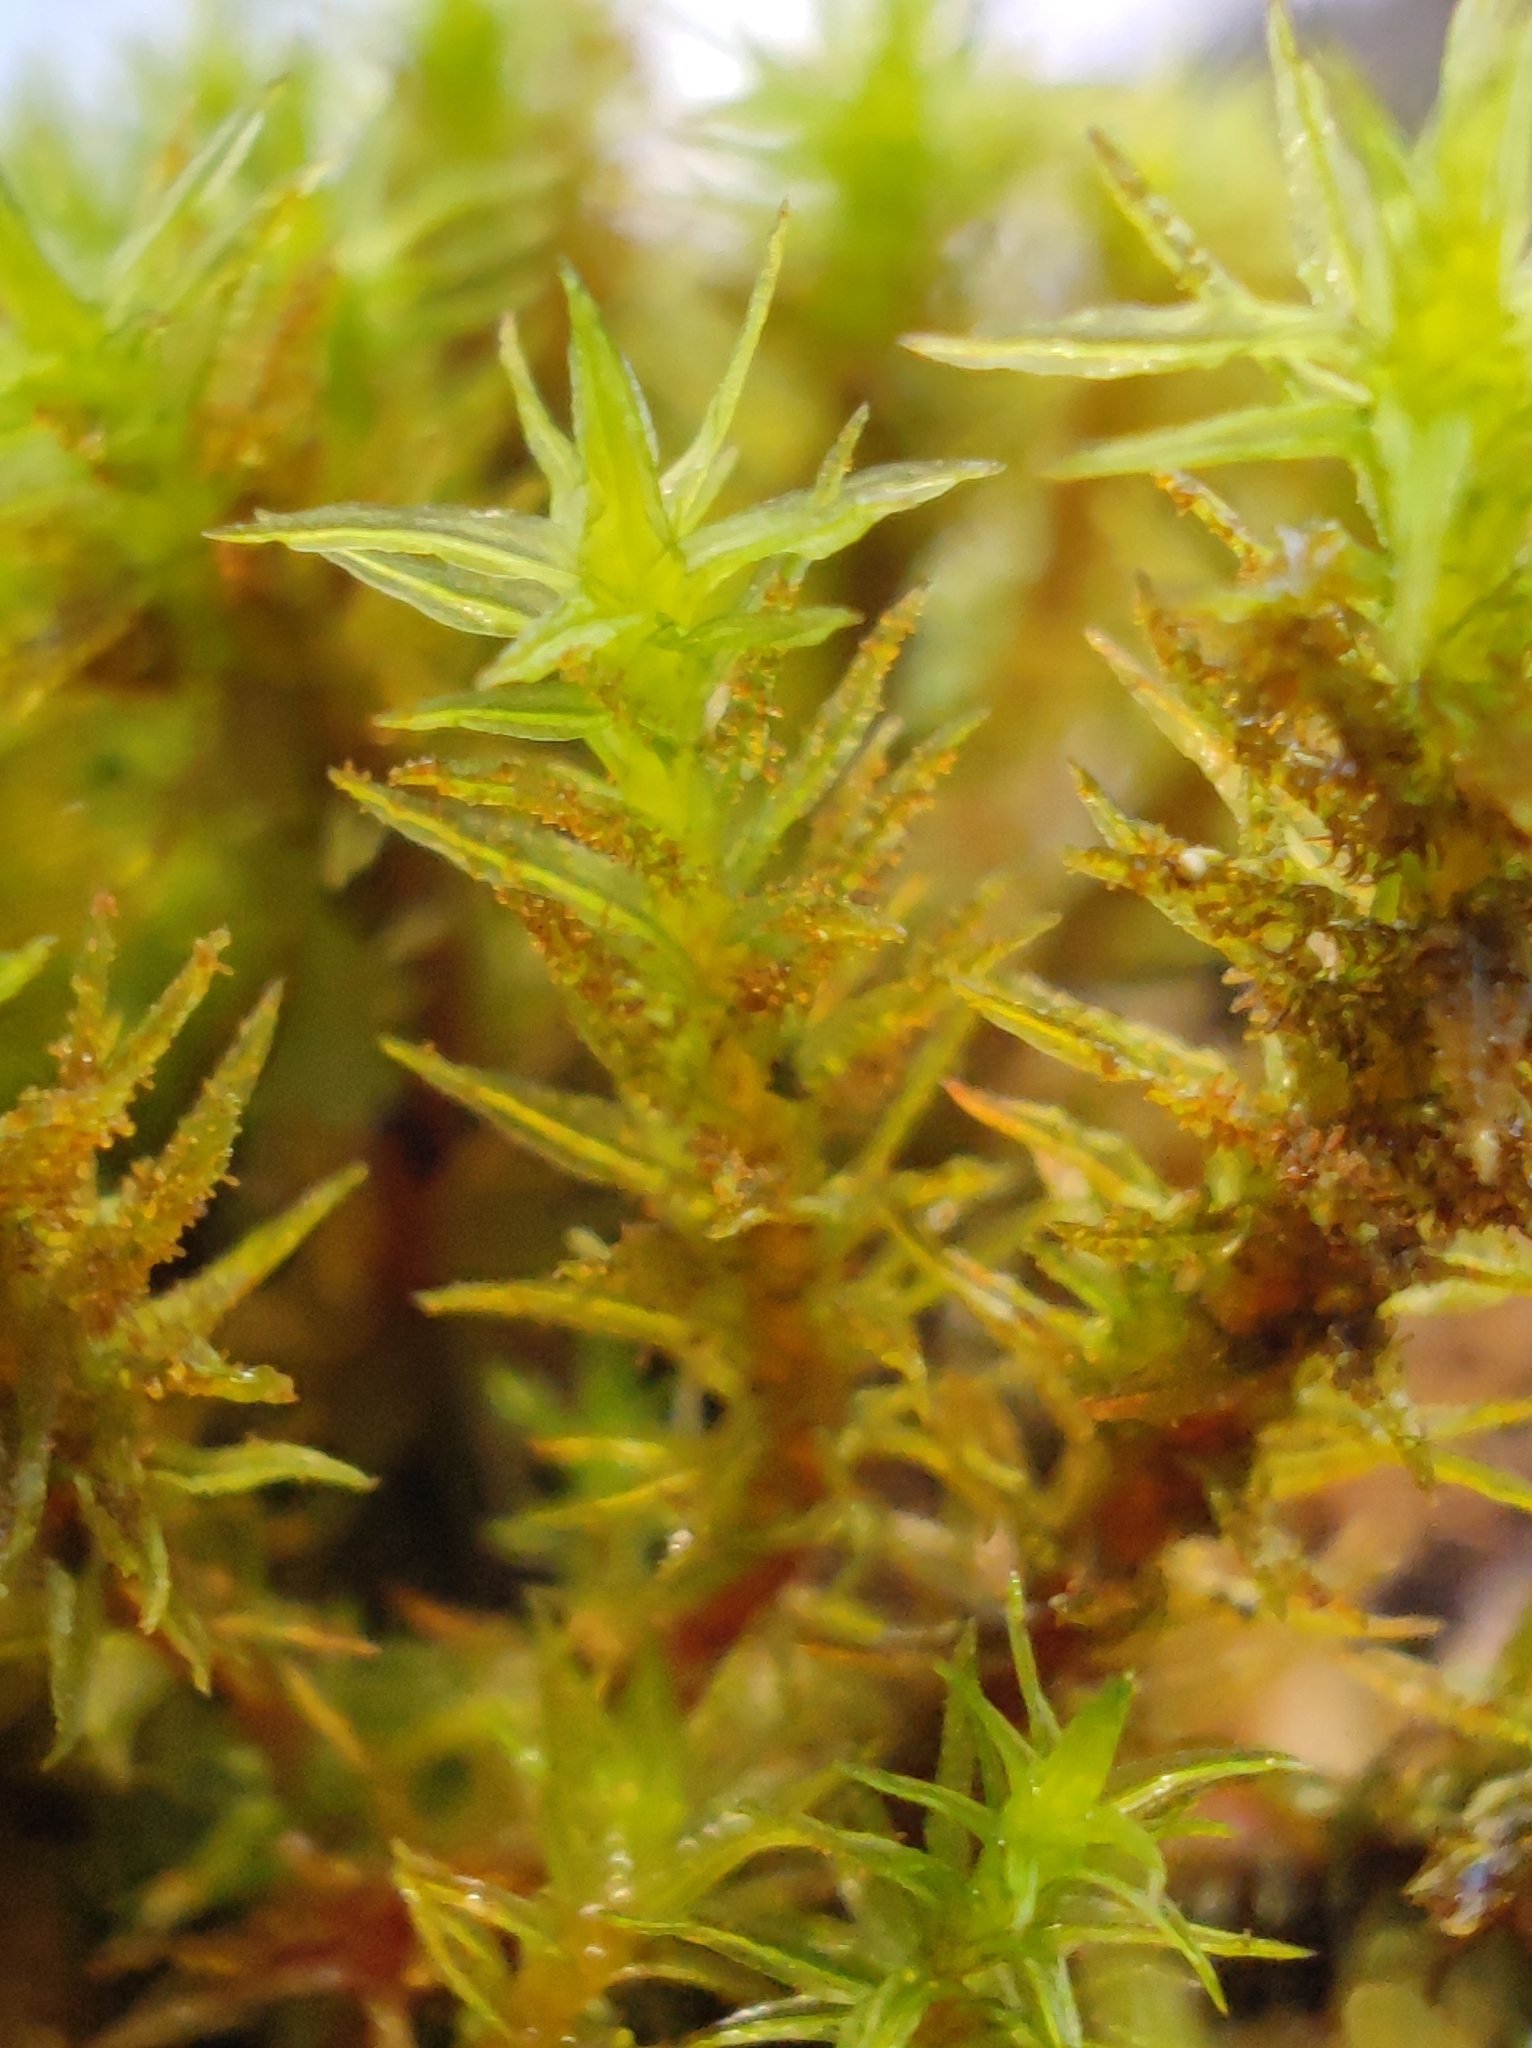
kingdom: Plantae
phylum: Bryophyta
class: Bryopsida
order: Orthotrichales
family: Orthotrichaceae
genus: Pulvigera
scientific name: Pulvigera lyellii
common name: Lyell's bristle-moss
